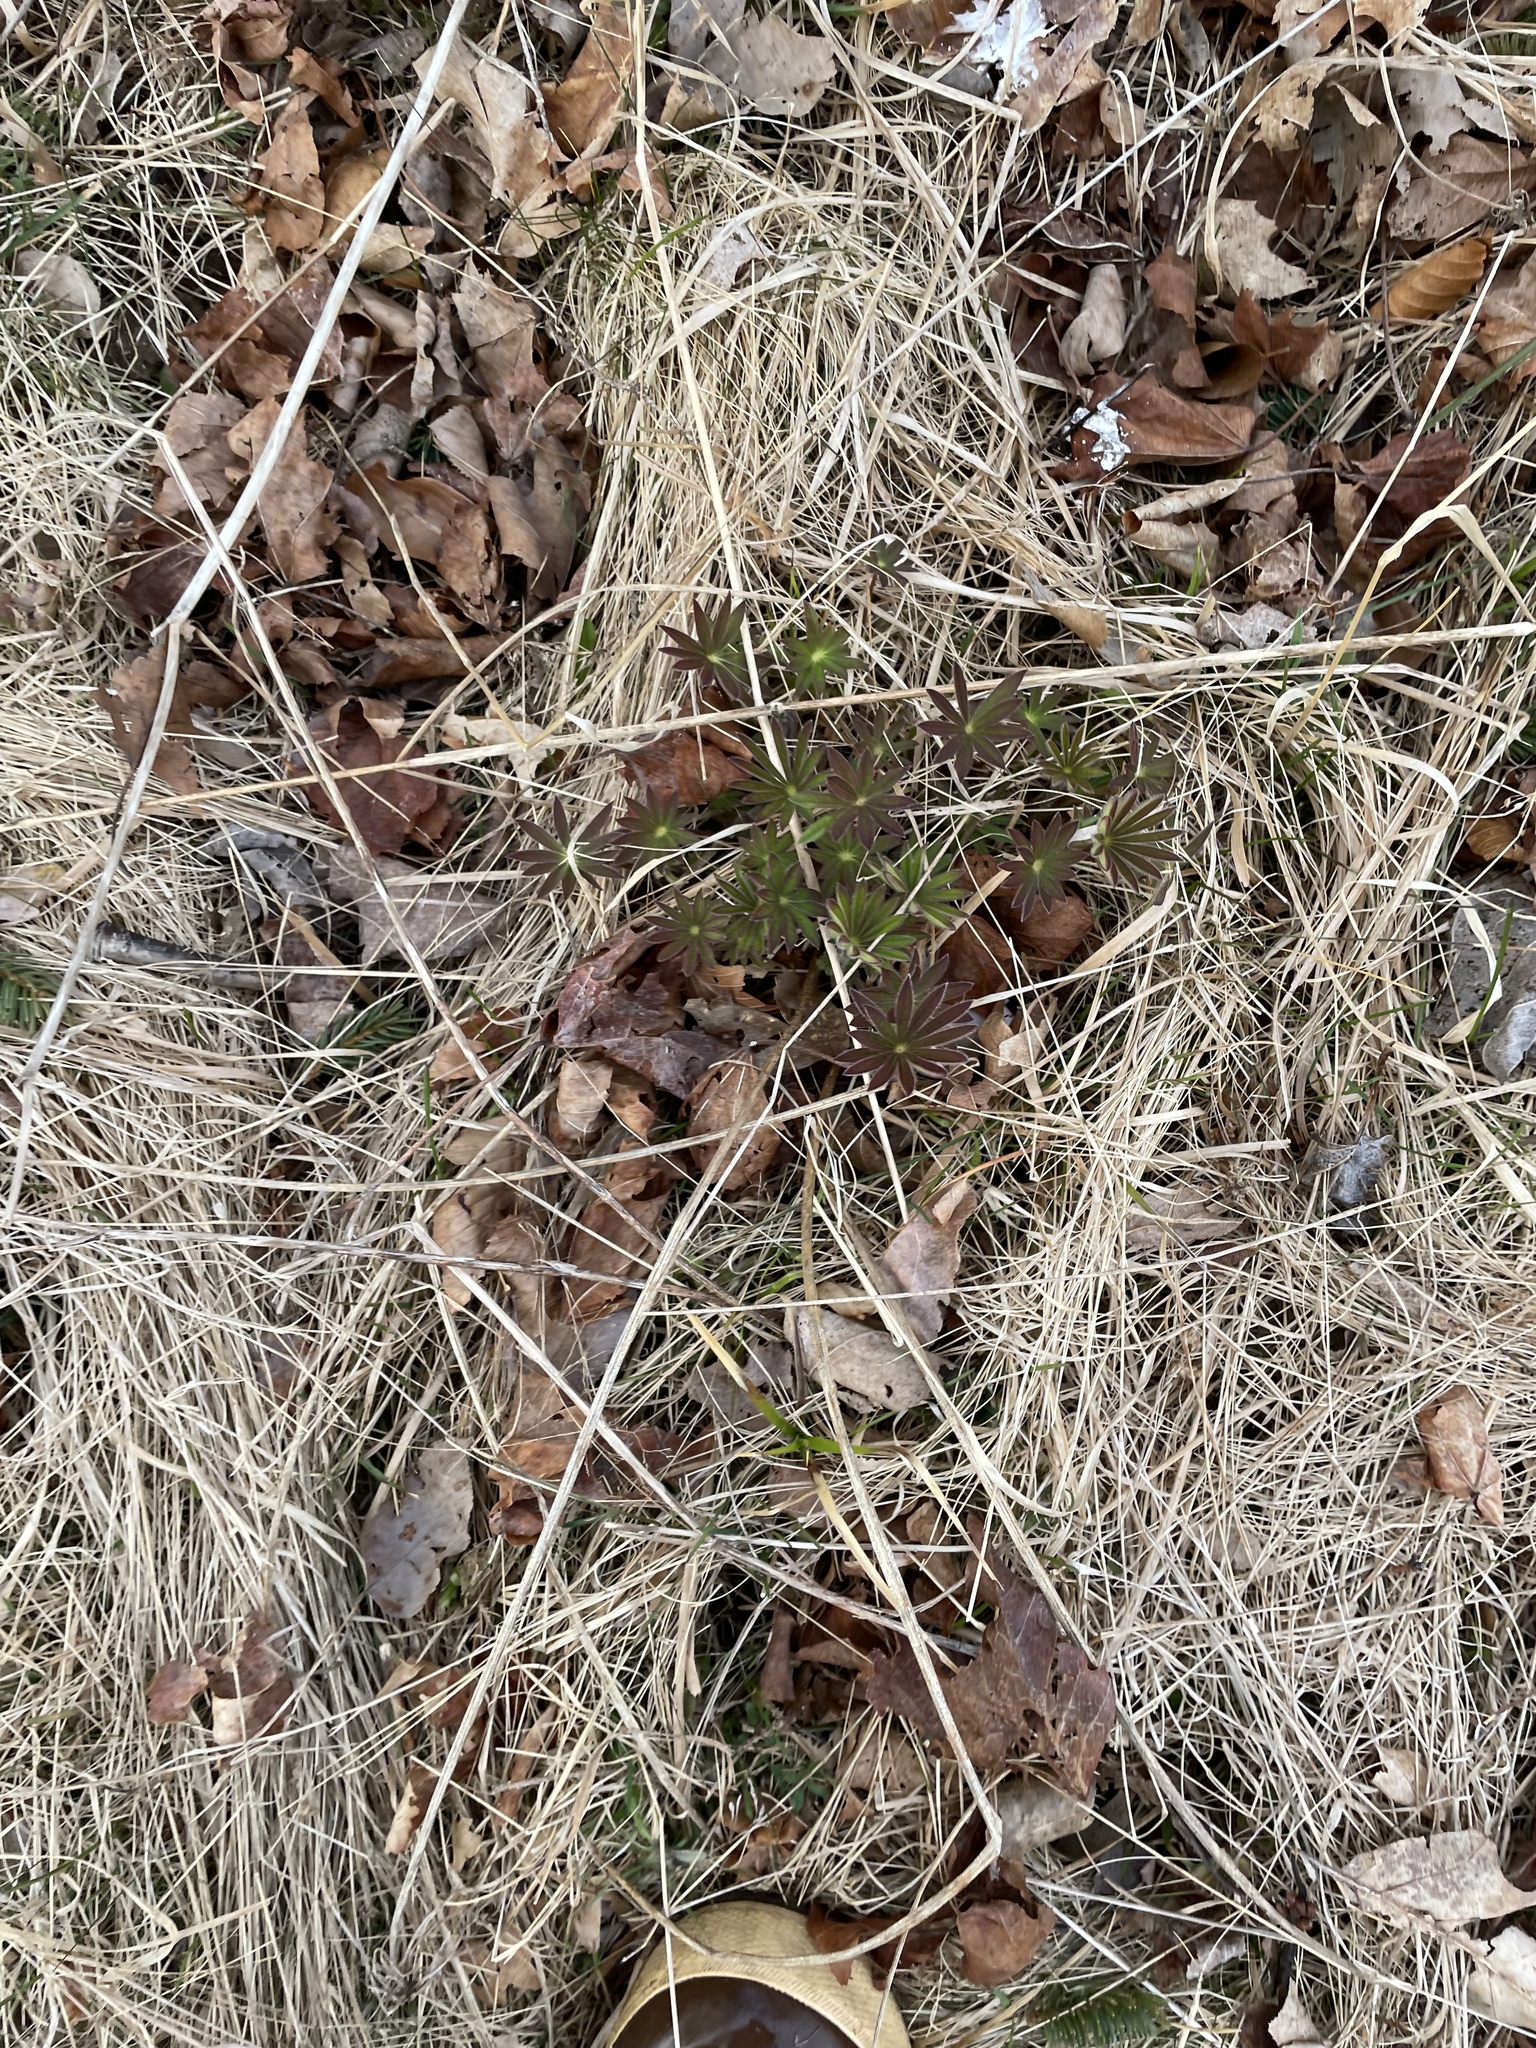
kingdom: Plantae
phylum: Tracheophyta
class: Magnoliopsida
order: Fabales
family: Fabaceae
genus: Lupinus
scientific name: Lupinus polyphyllus
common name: Garden lupin
